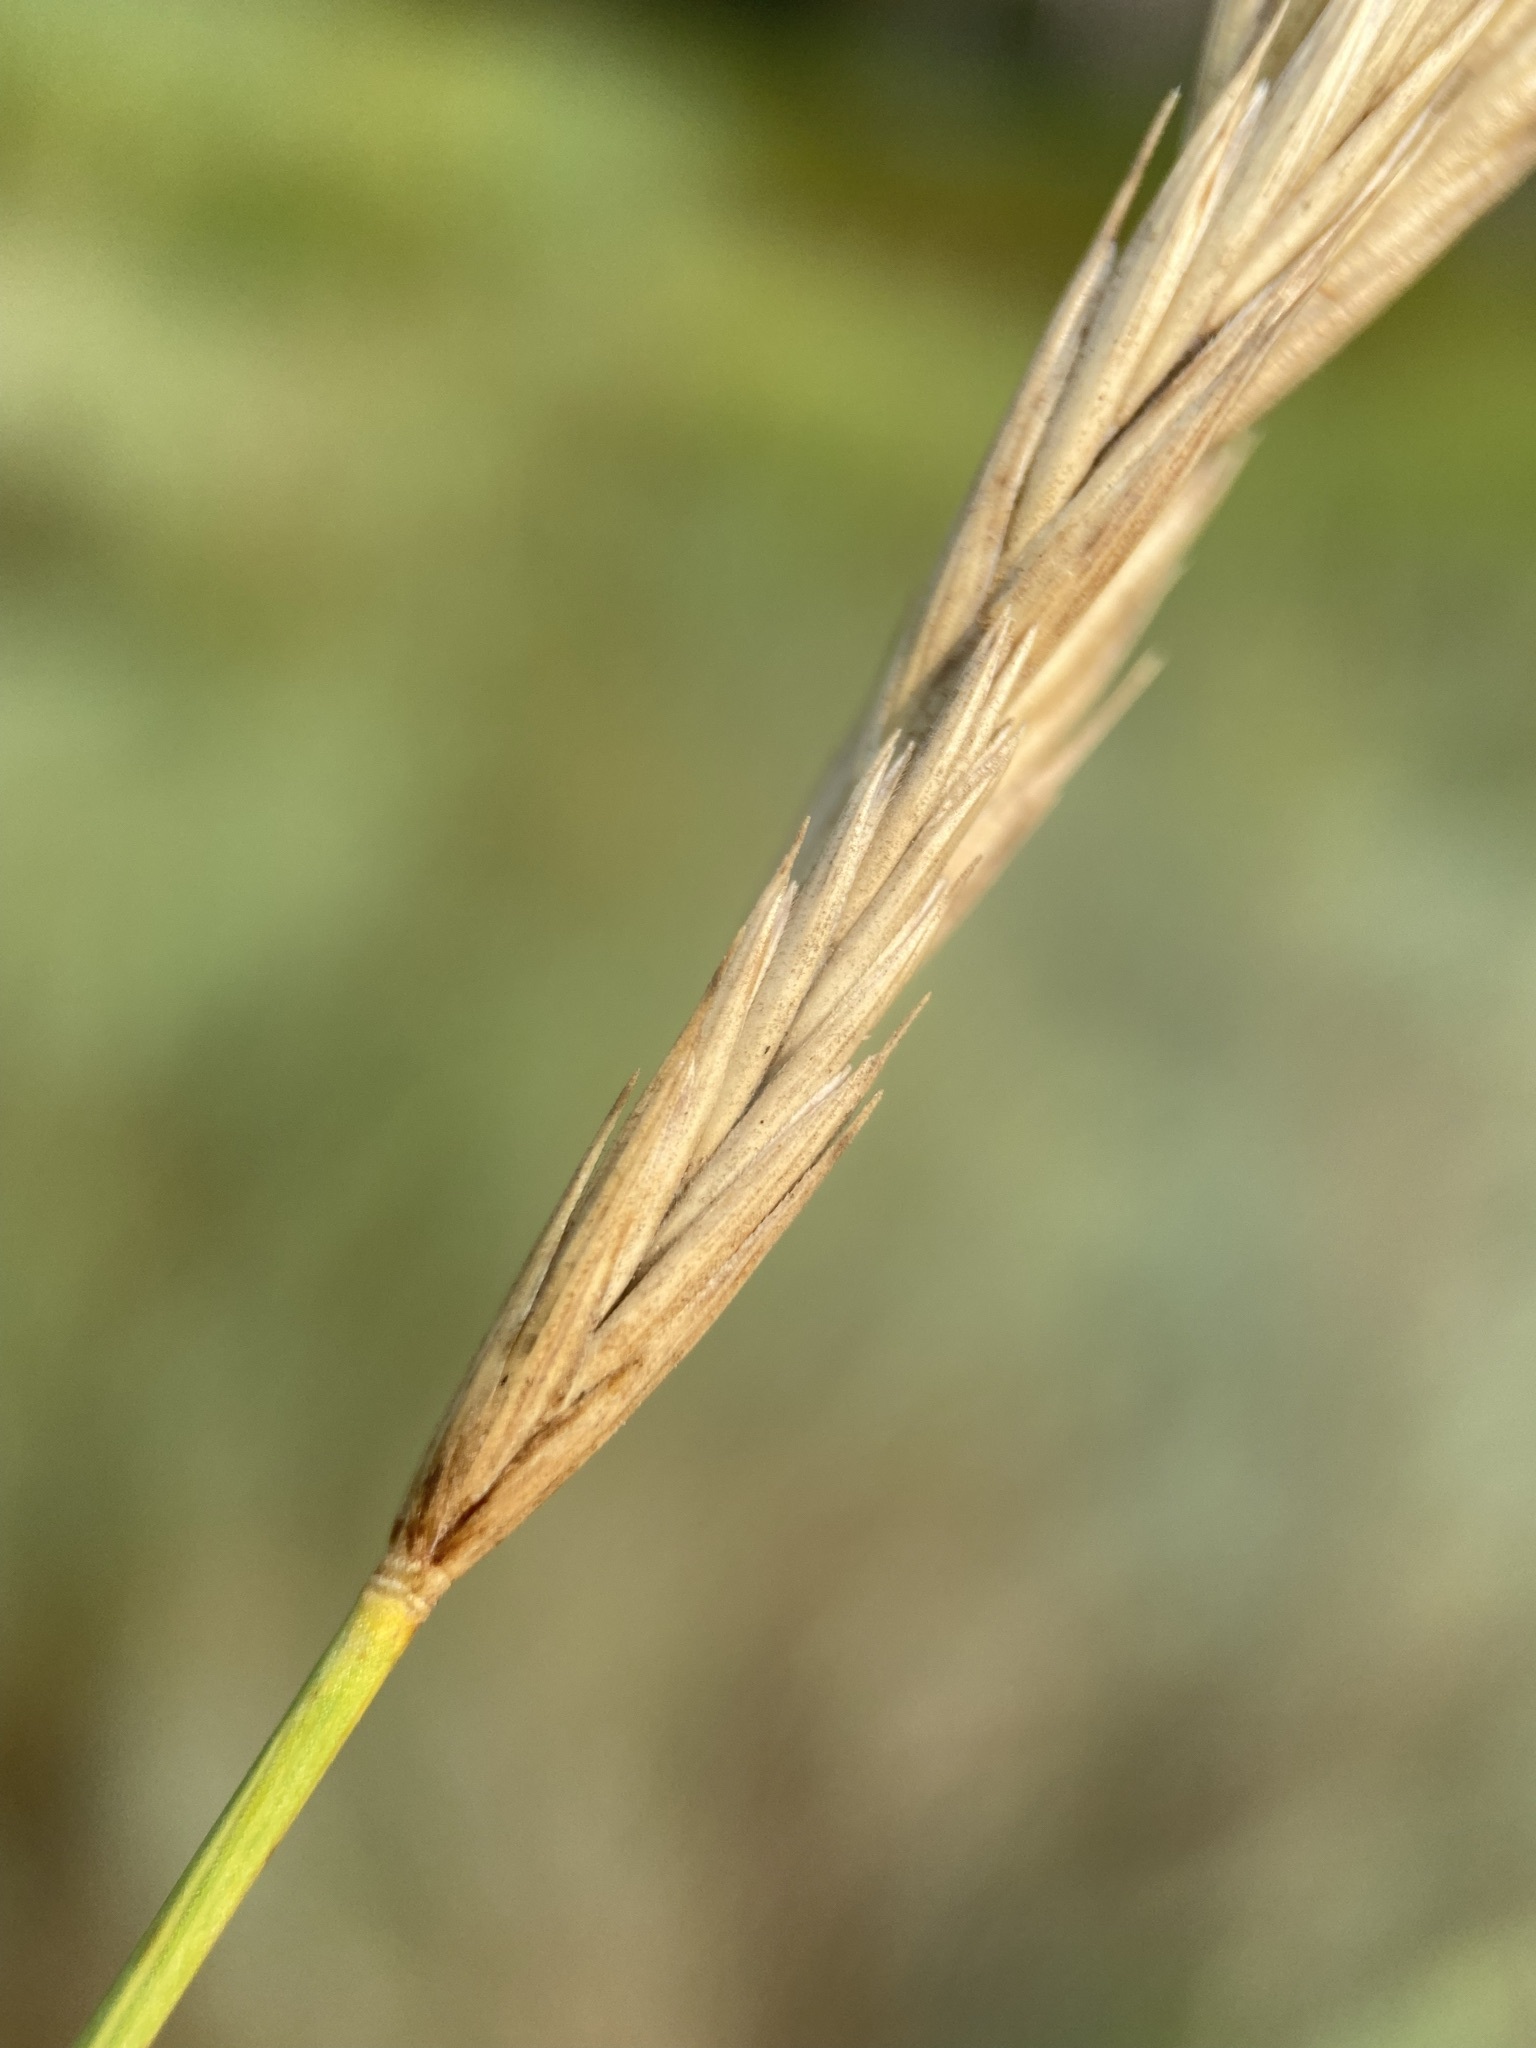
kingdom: Plantae
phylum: Tracheophyta
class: Liliopsida
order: Poales
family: Poaceae
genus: Elymus
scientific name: Elymus smithii
